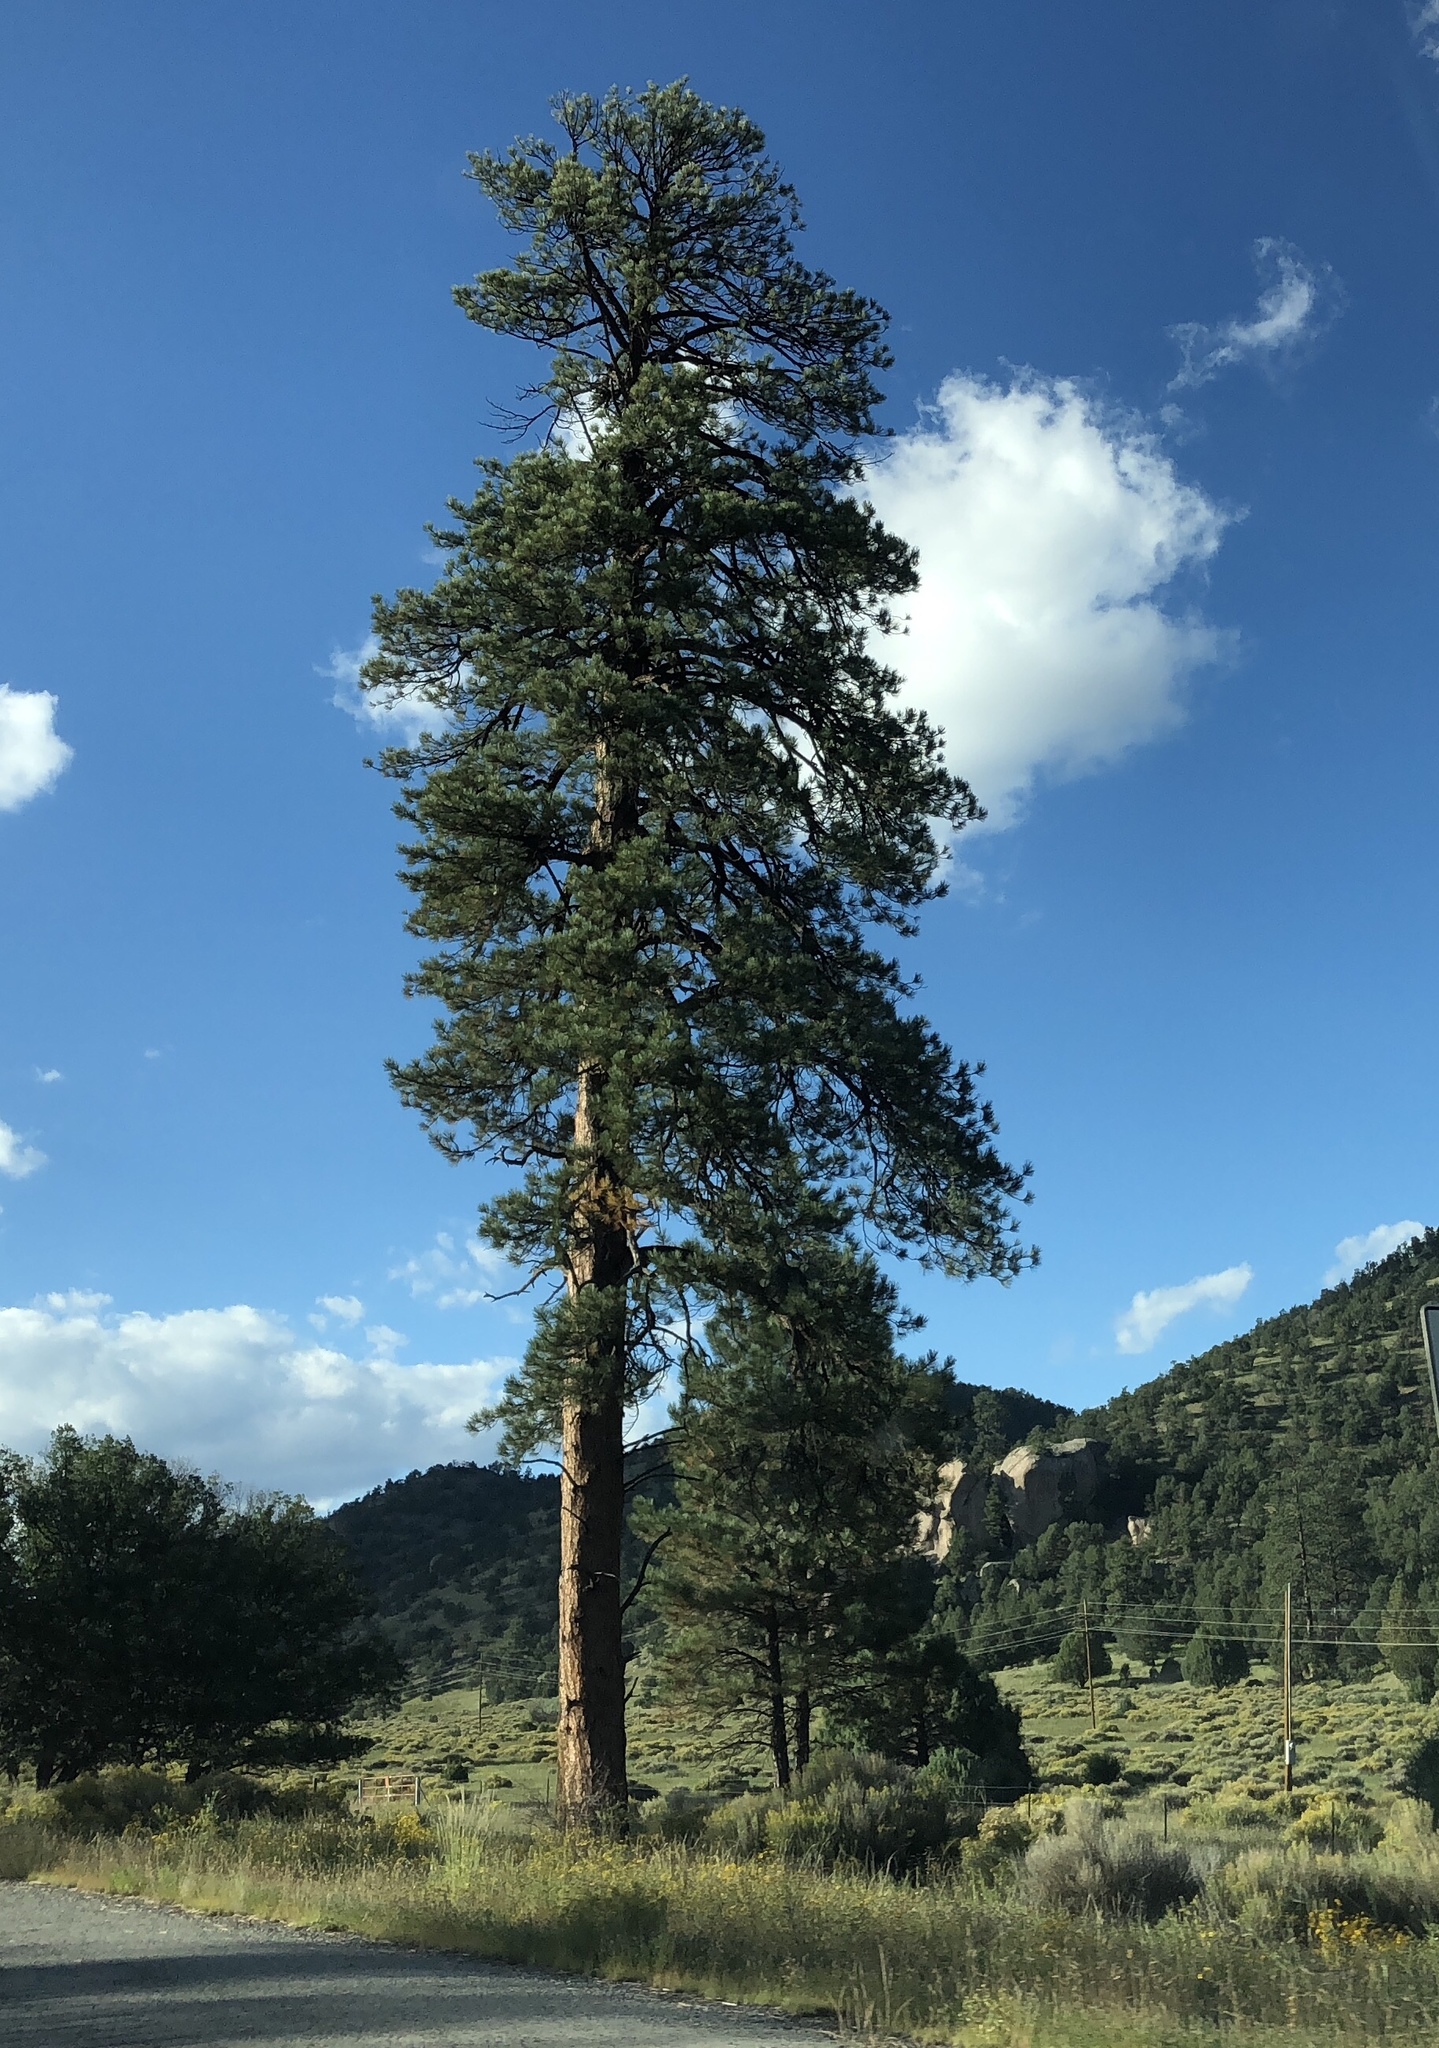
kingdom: Plantae
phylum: Tracheophyta
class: Pinopsida
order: Pinales
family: Pinaceae
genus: Pinus
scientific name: Pinus ponderosa
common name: Western yellow-pine
